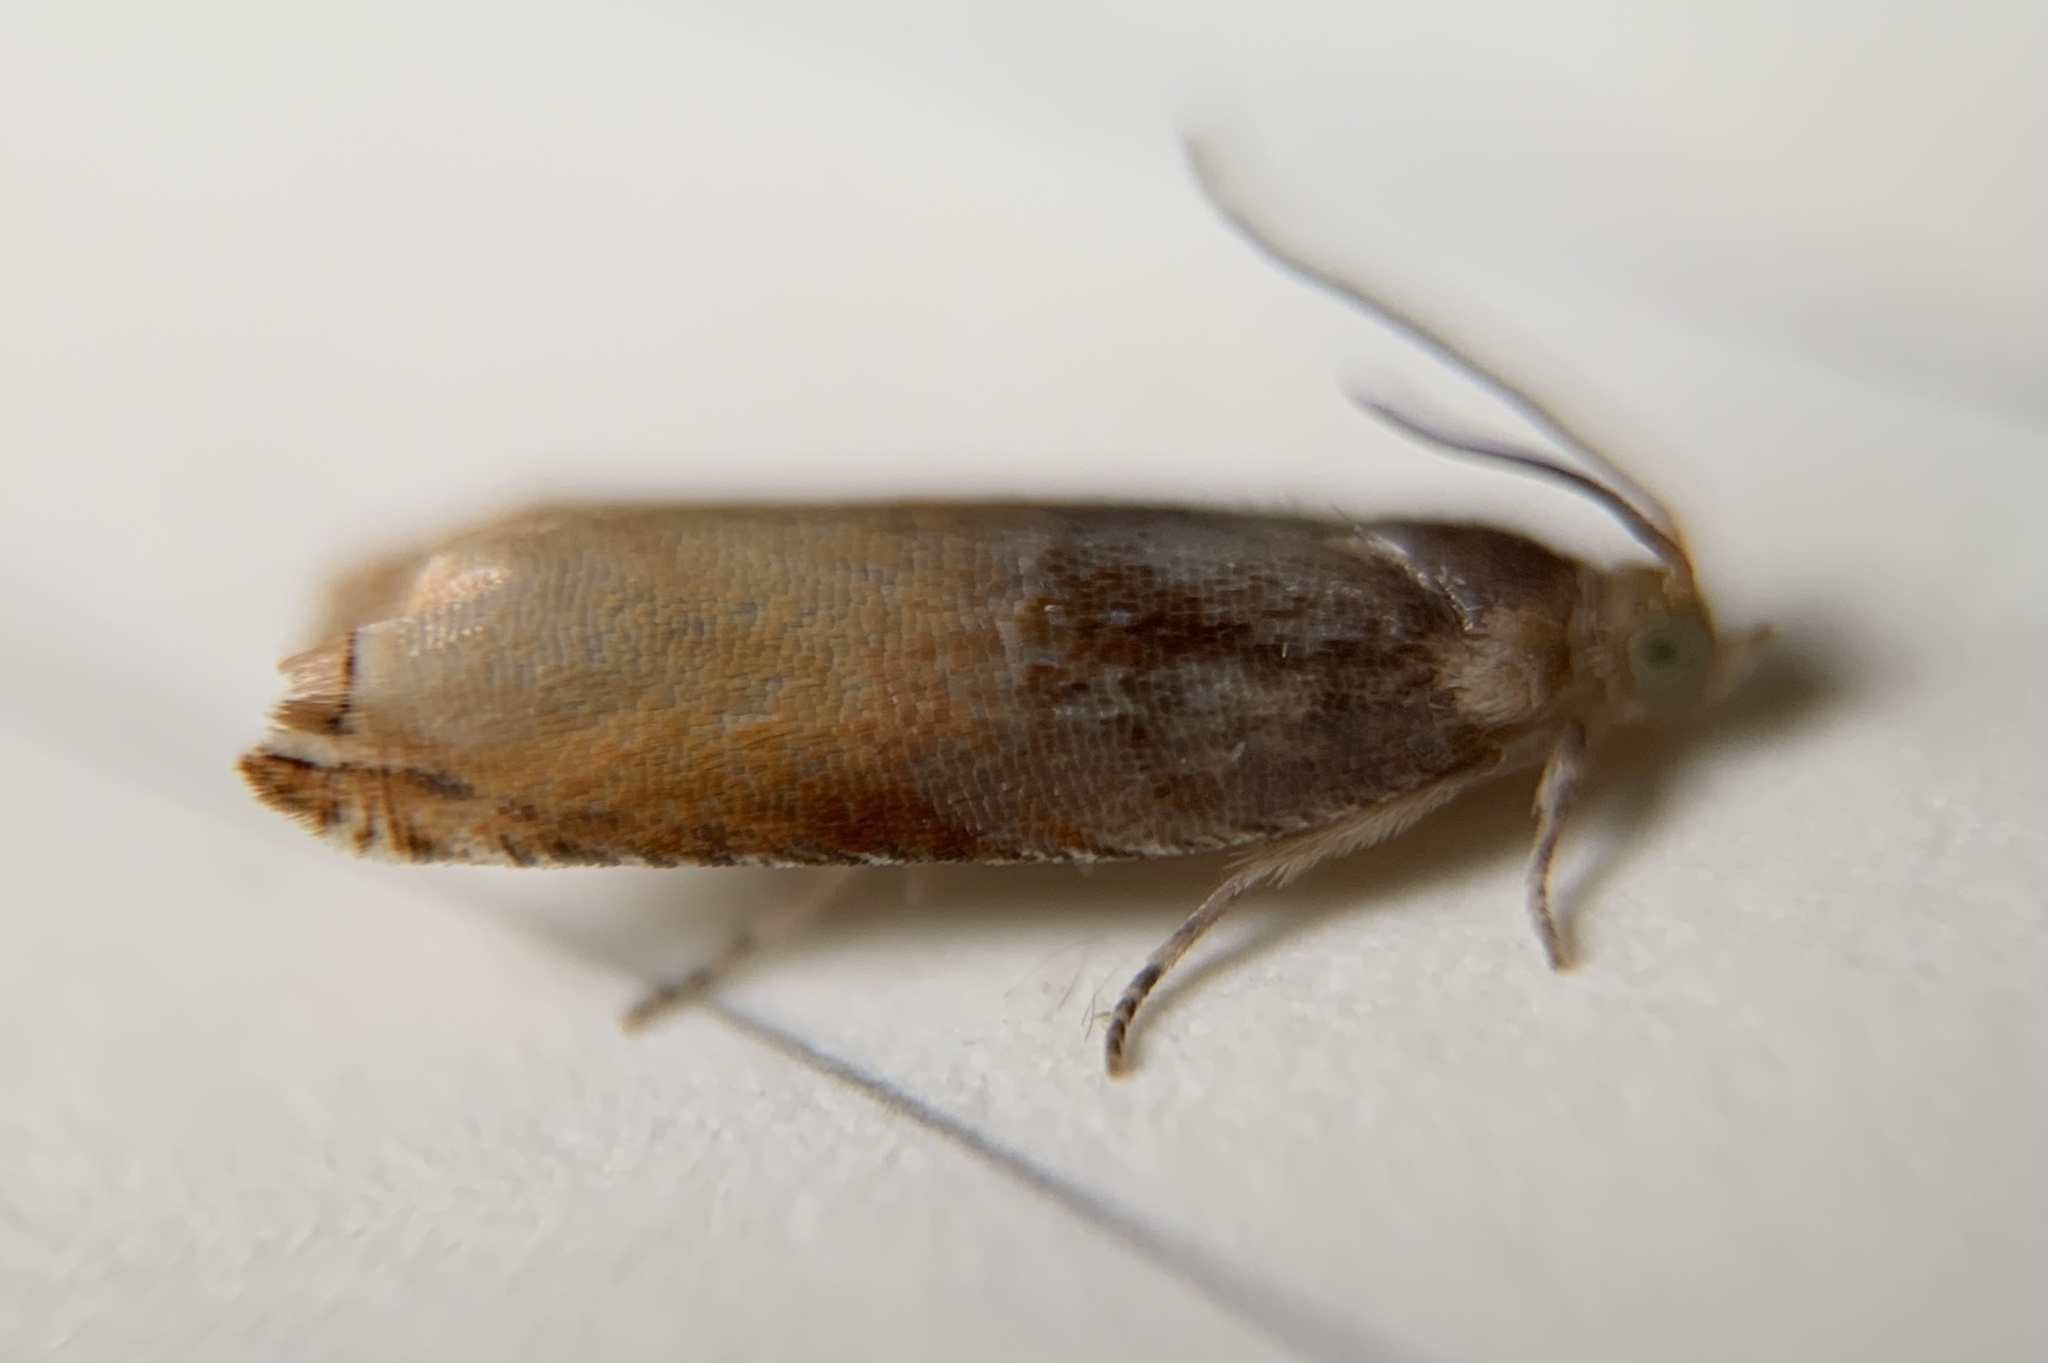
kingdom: Animalia
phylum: Arthropoda
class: Insecta
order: Lepidoptera
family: Tortricidae
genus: Ancylis
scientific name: Ancylis divisana
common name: Two-toned ancylis moth
